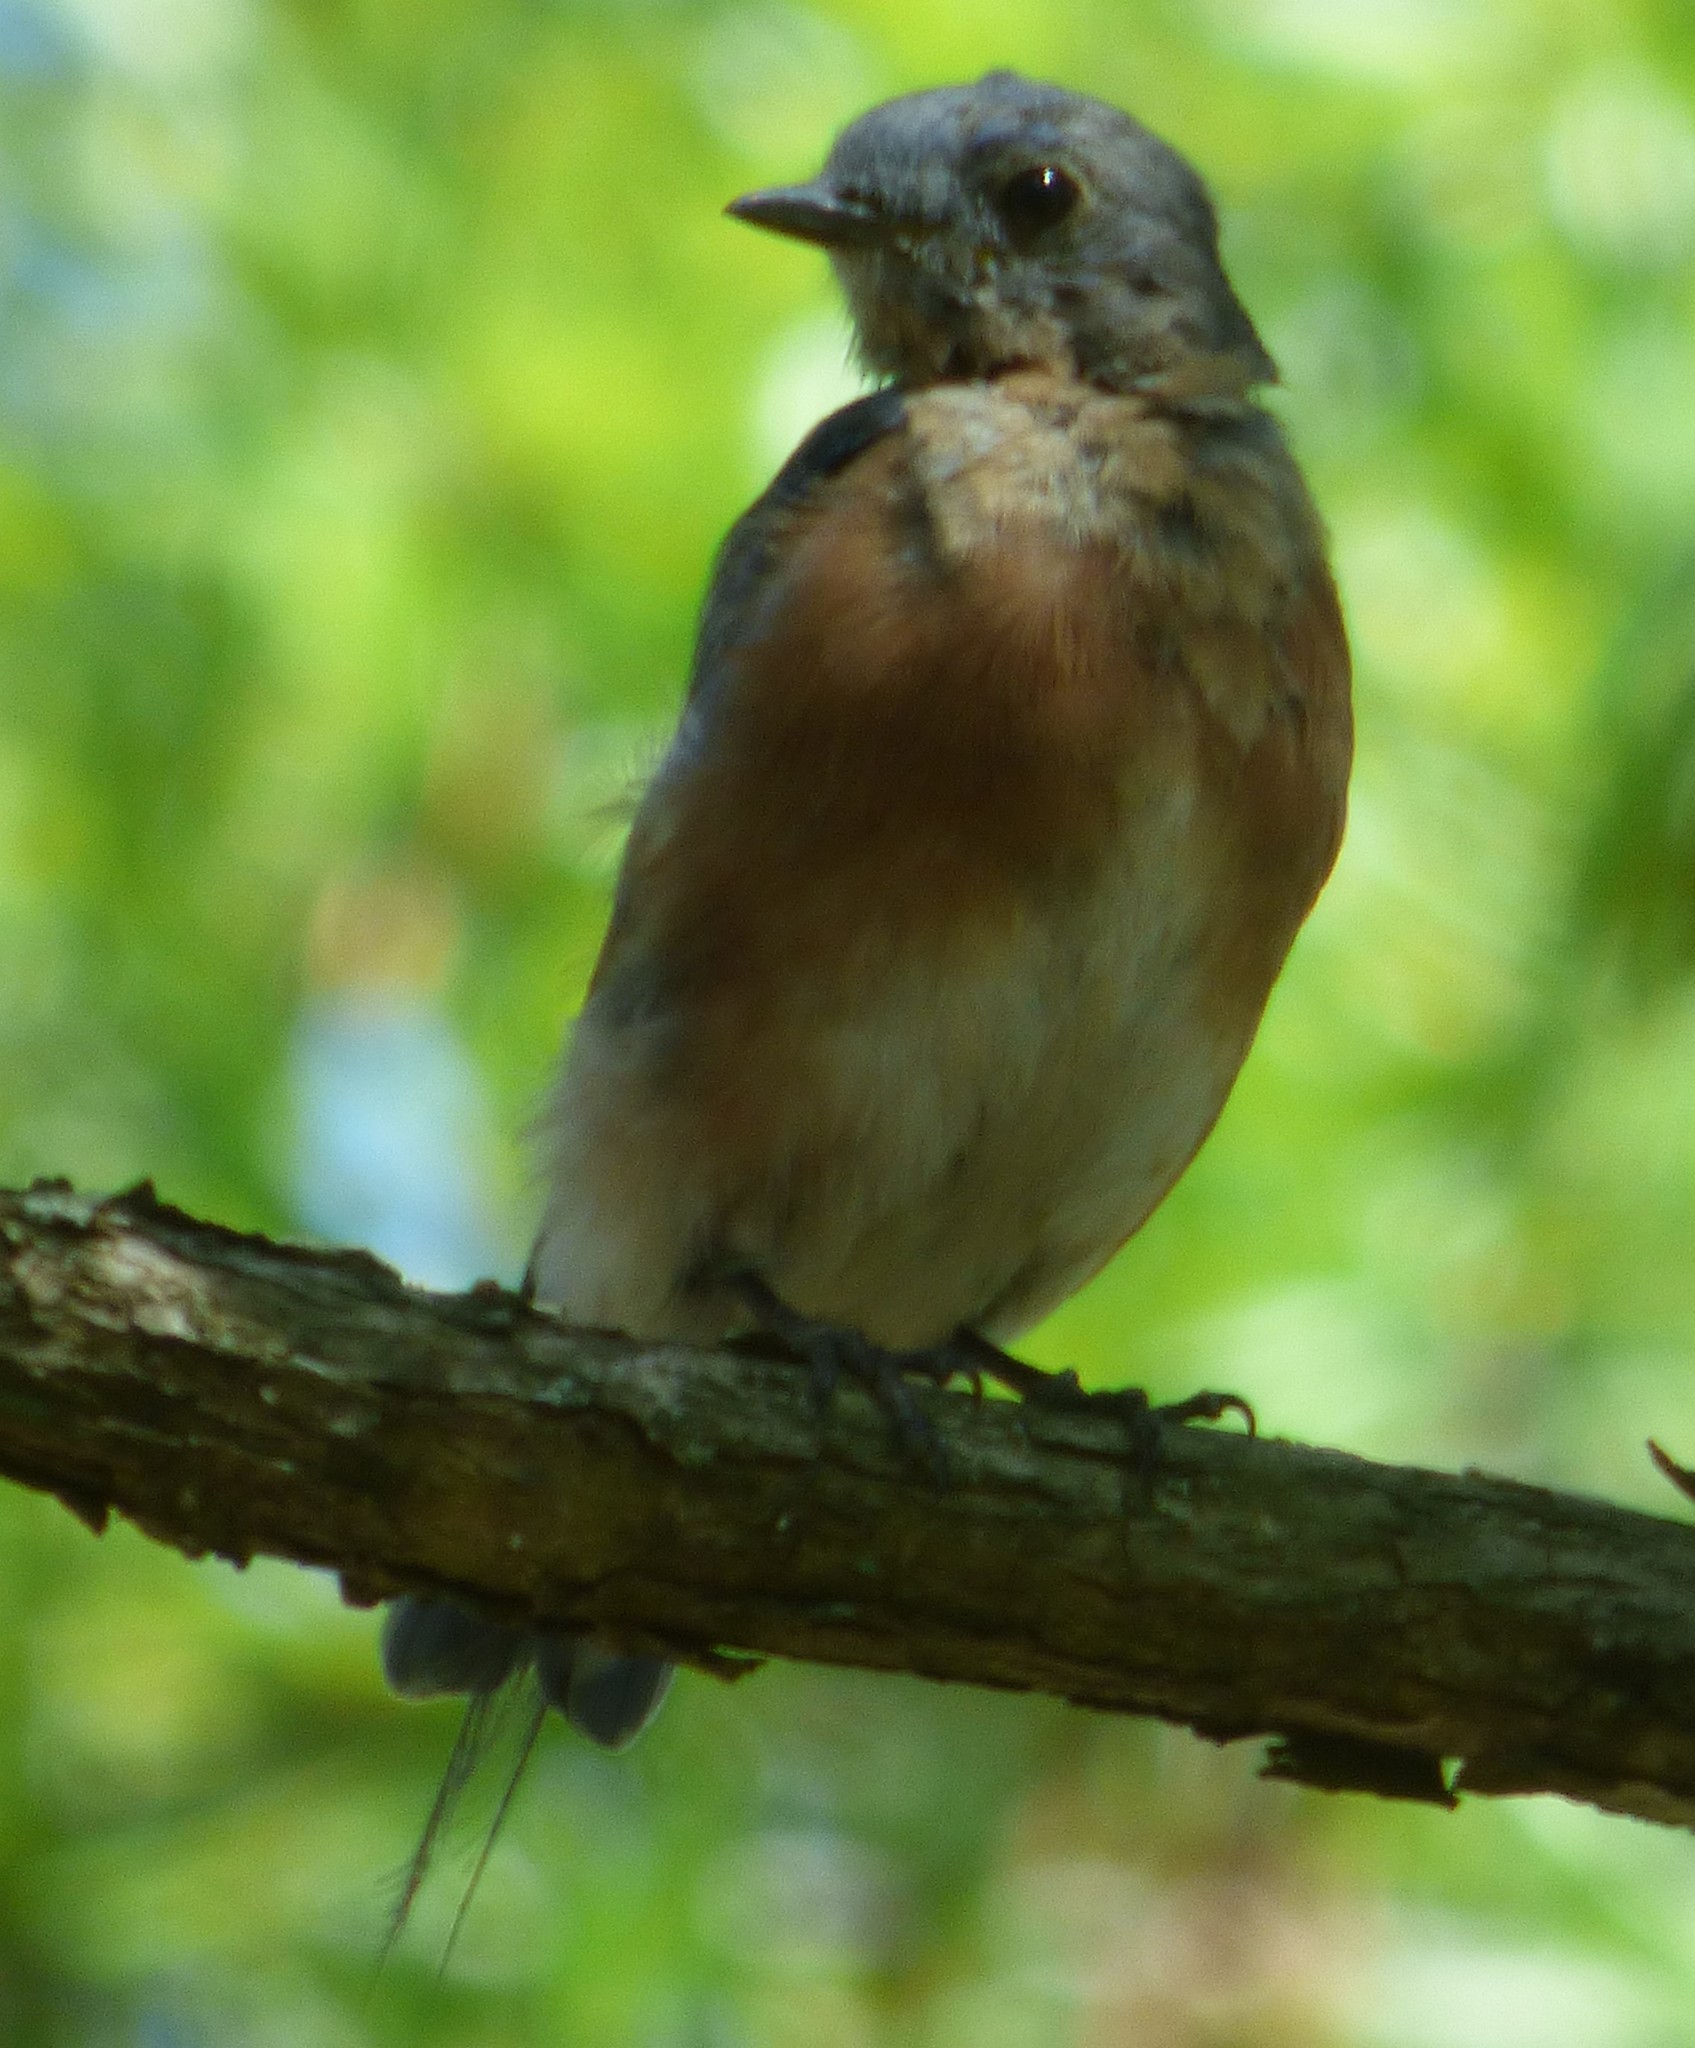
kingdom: Animalia
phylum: Chordata
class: Aves
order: Passeriformes
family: Turdidae
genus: Sialia
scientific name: Sialia sialis
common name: Eastern bluebird
